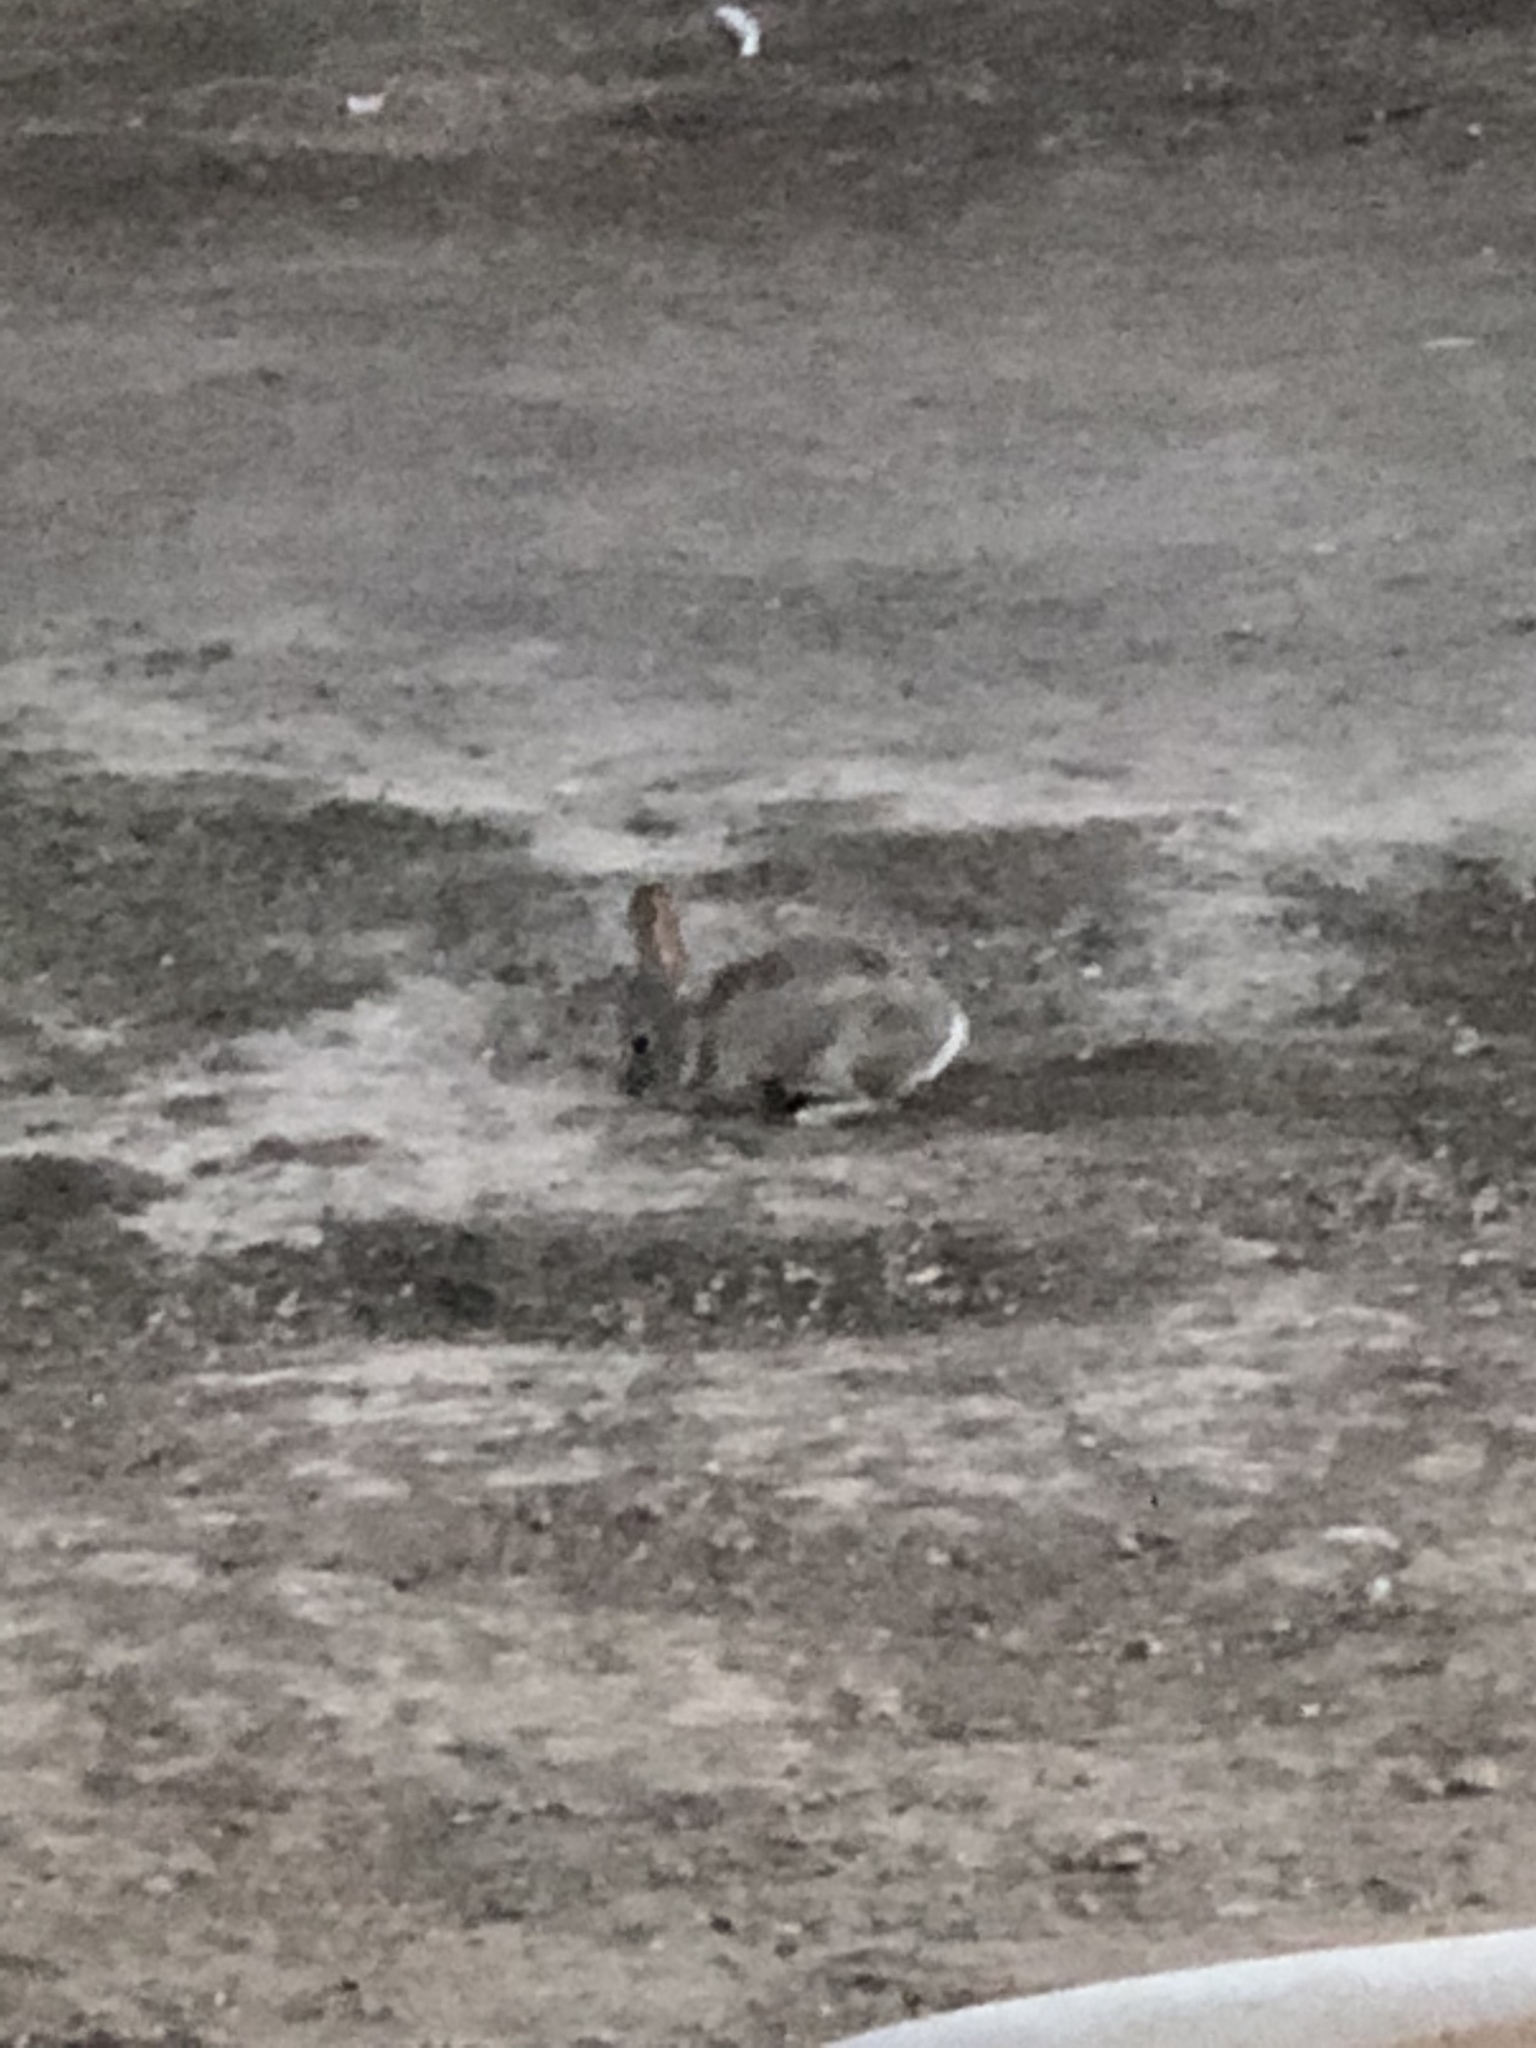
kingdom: Animalia
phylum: Chordata
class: Mammalia
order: Lagomorpha
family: Leporidae
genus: Sylvilagus
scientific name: Sylvilagus audubonii
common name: Desert cottontail
